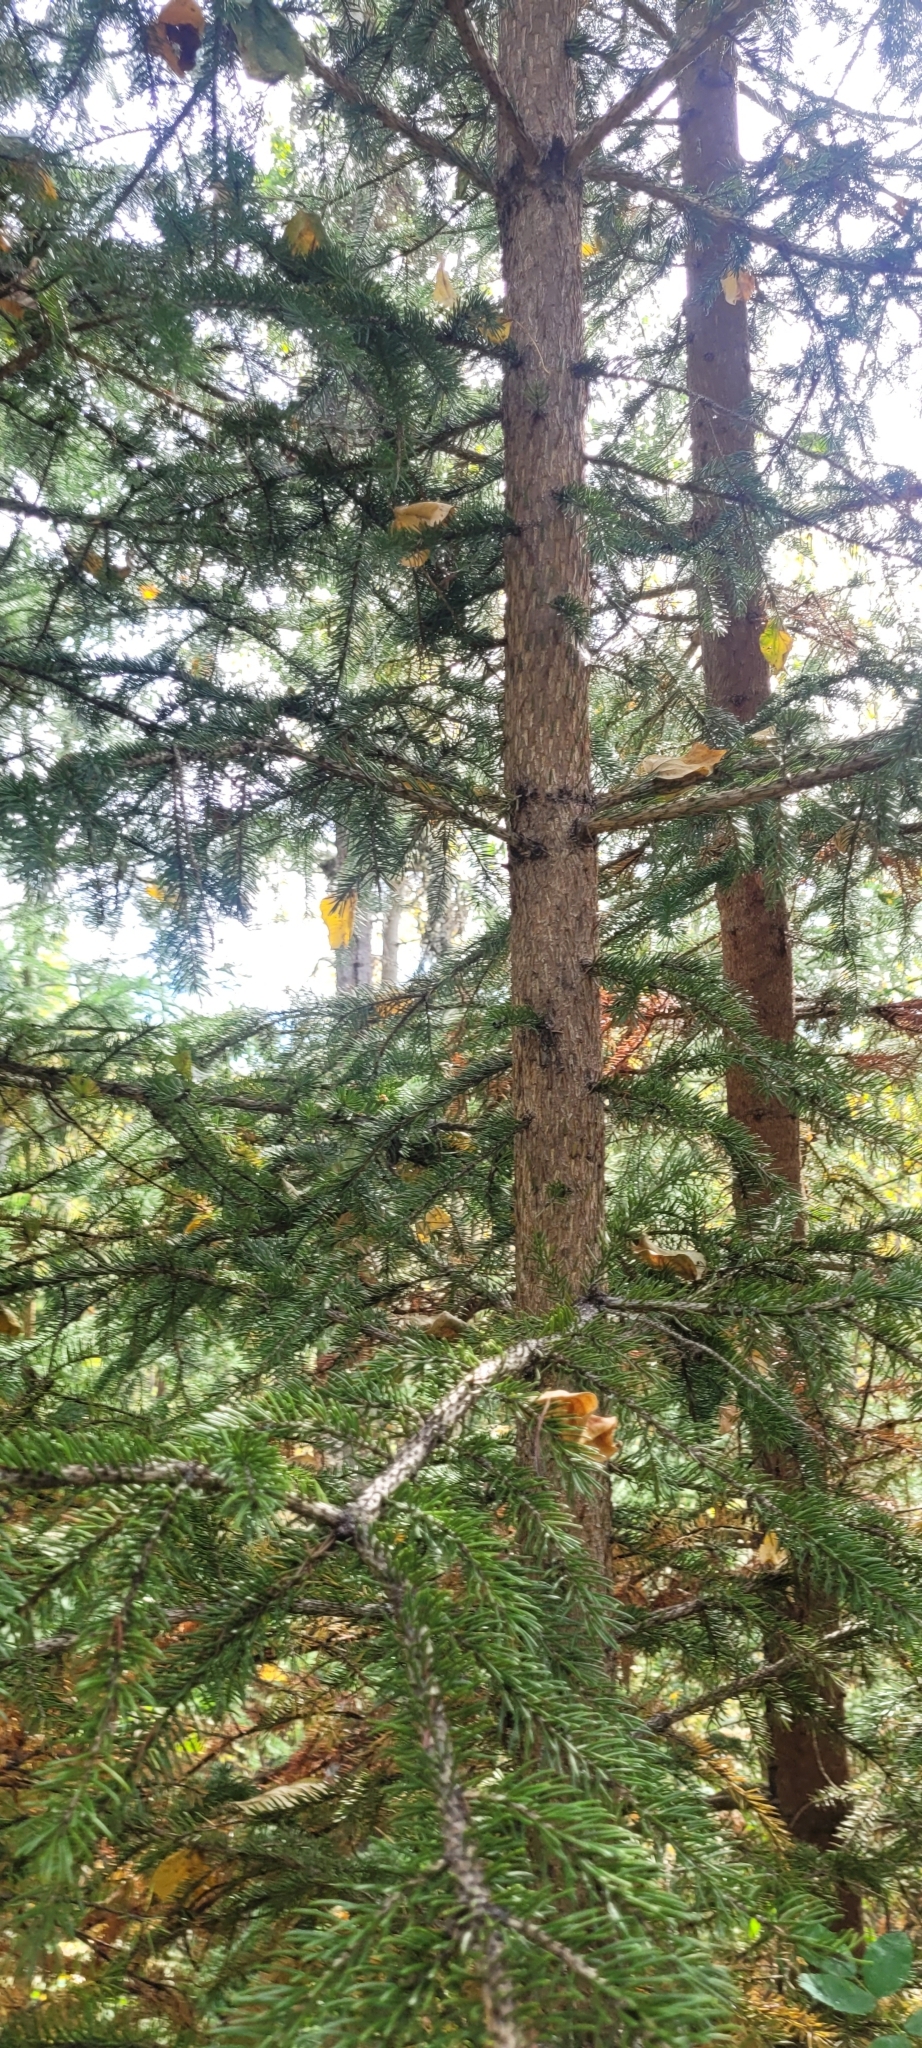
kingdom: Plantae
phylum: Tracheophyta
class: Pinopsida
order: Pinales
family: Pinaceae
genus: Picea
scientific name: Picea glauca
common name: White spruce
